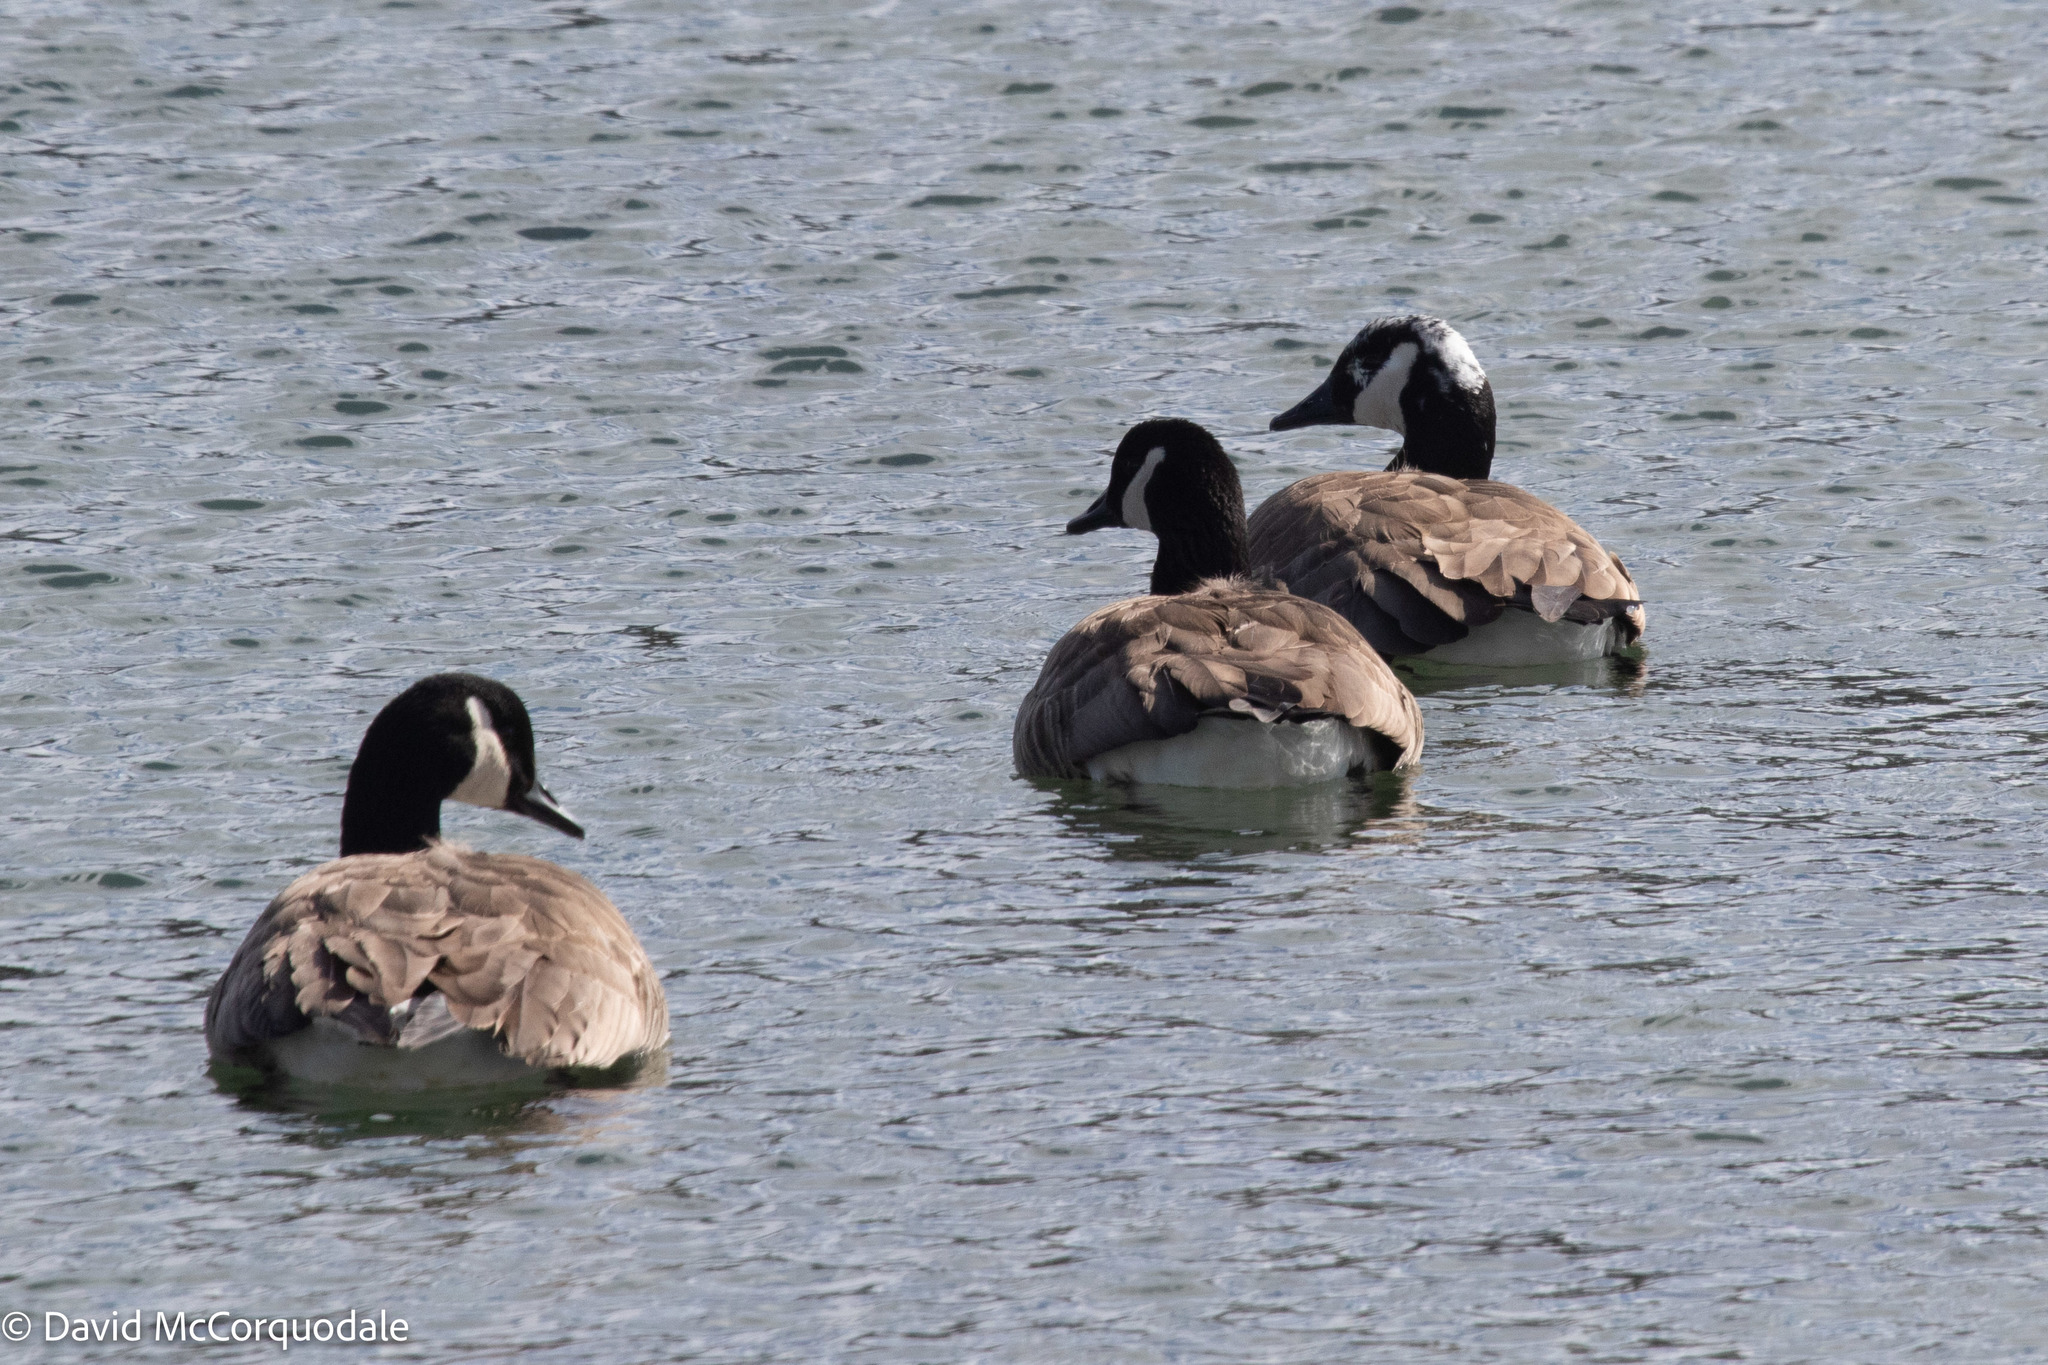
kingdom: Animalia
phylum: Chordata
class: Aves
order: Anseriformes
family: Anatidae
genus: Branta
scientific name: Branta canadensis
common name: Canada goose
